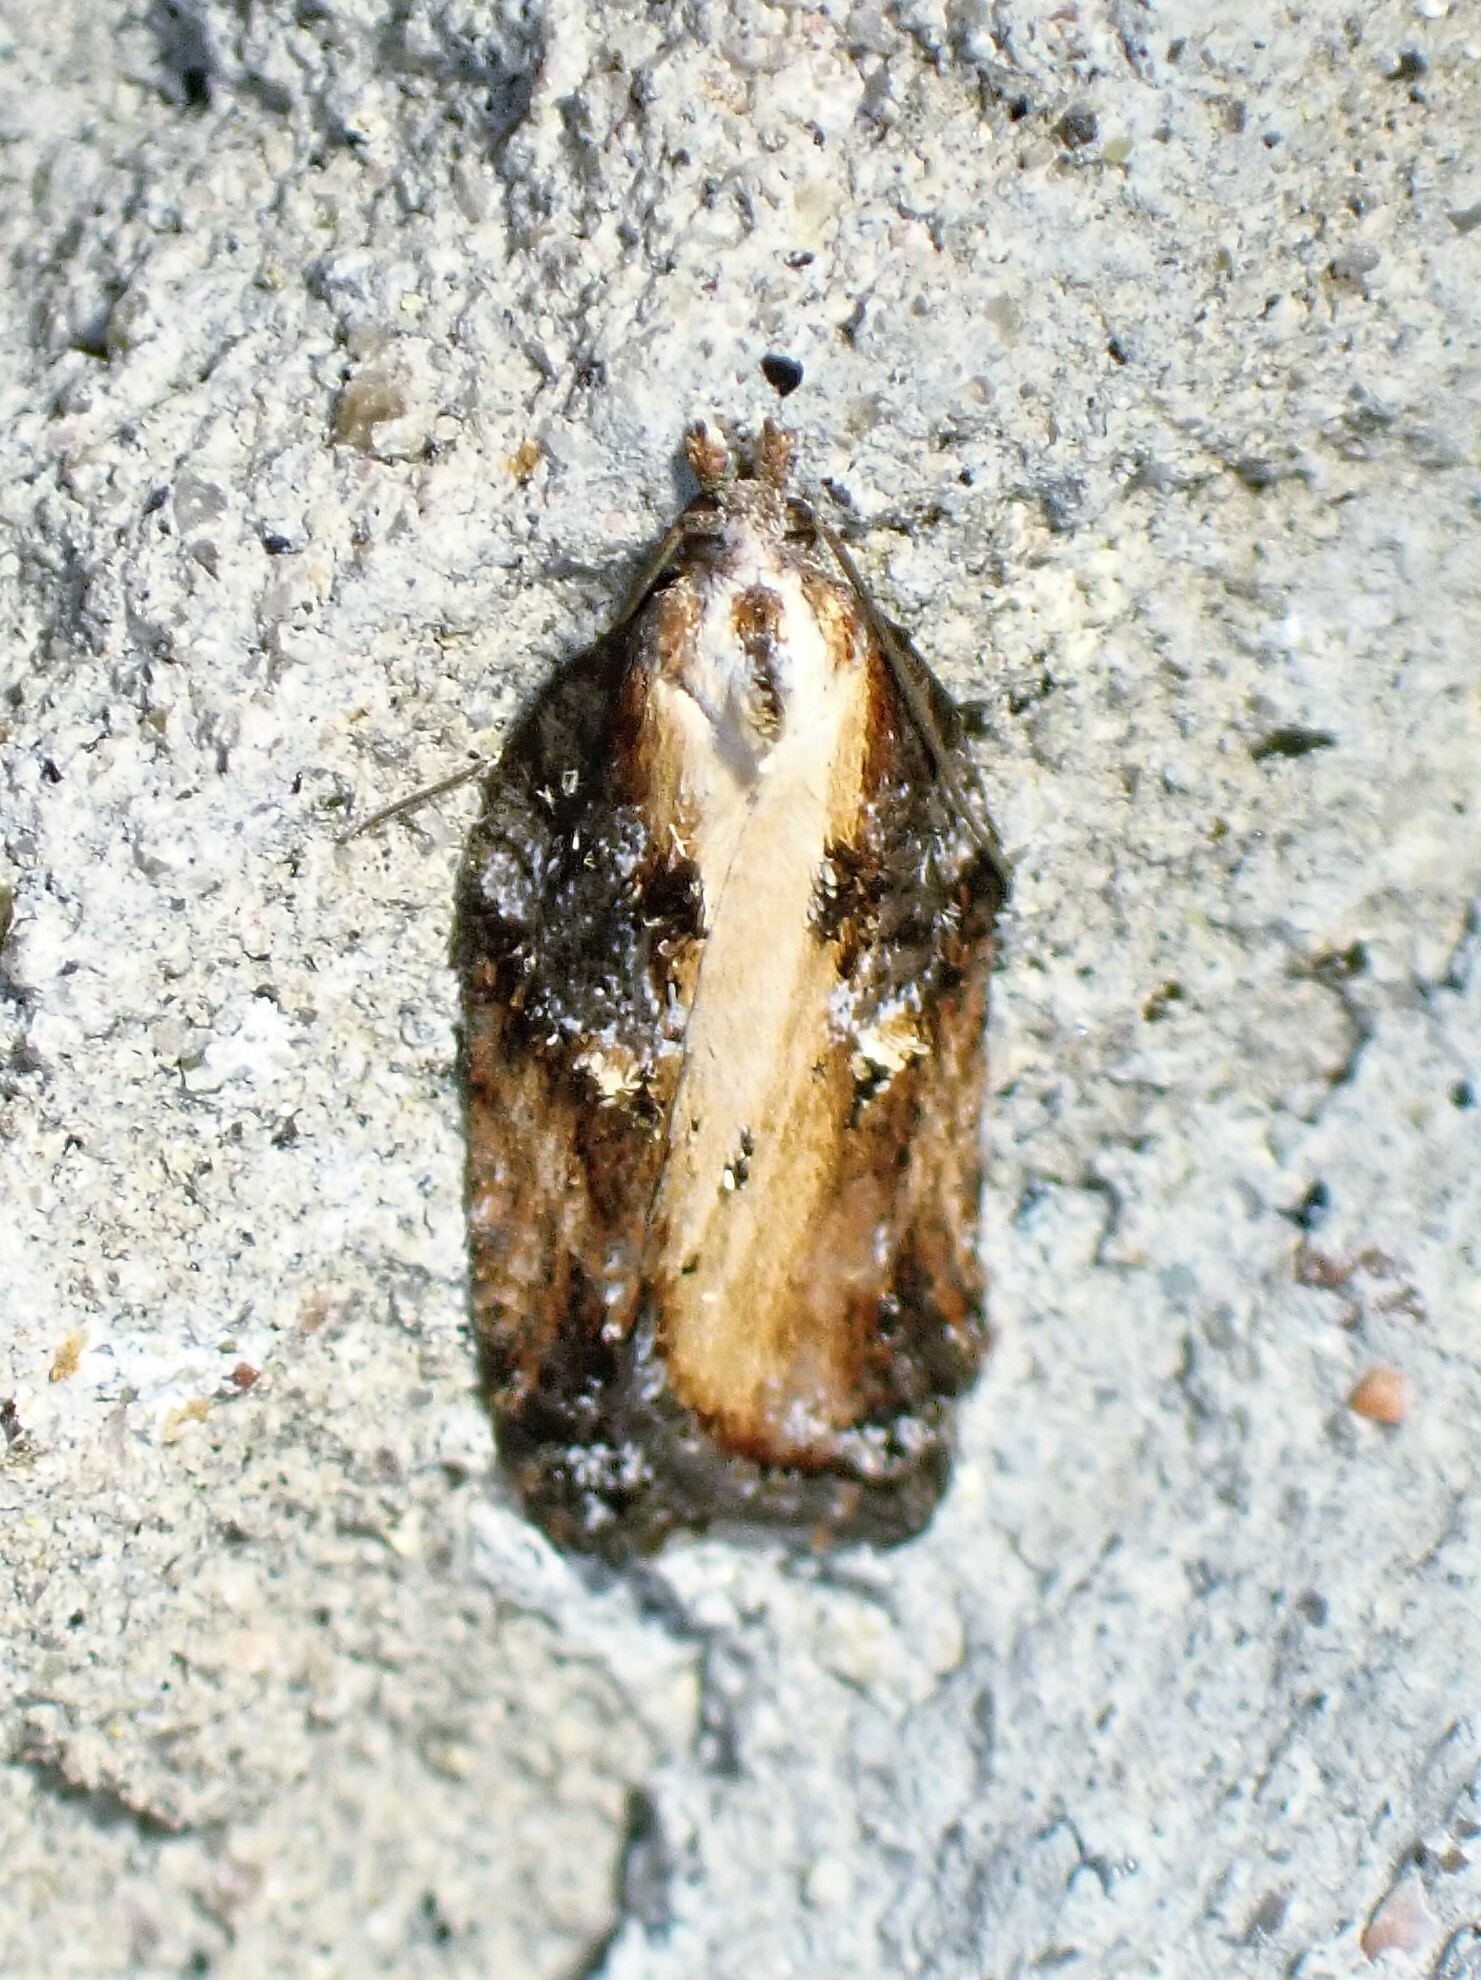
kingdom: Animalia
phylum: Arthropoda
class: Insecta
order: Lepidoptera
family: Tortricidae
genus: Acleris
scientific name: Acleris robinsoniana
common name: Robinson's acleris moth
